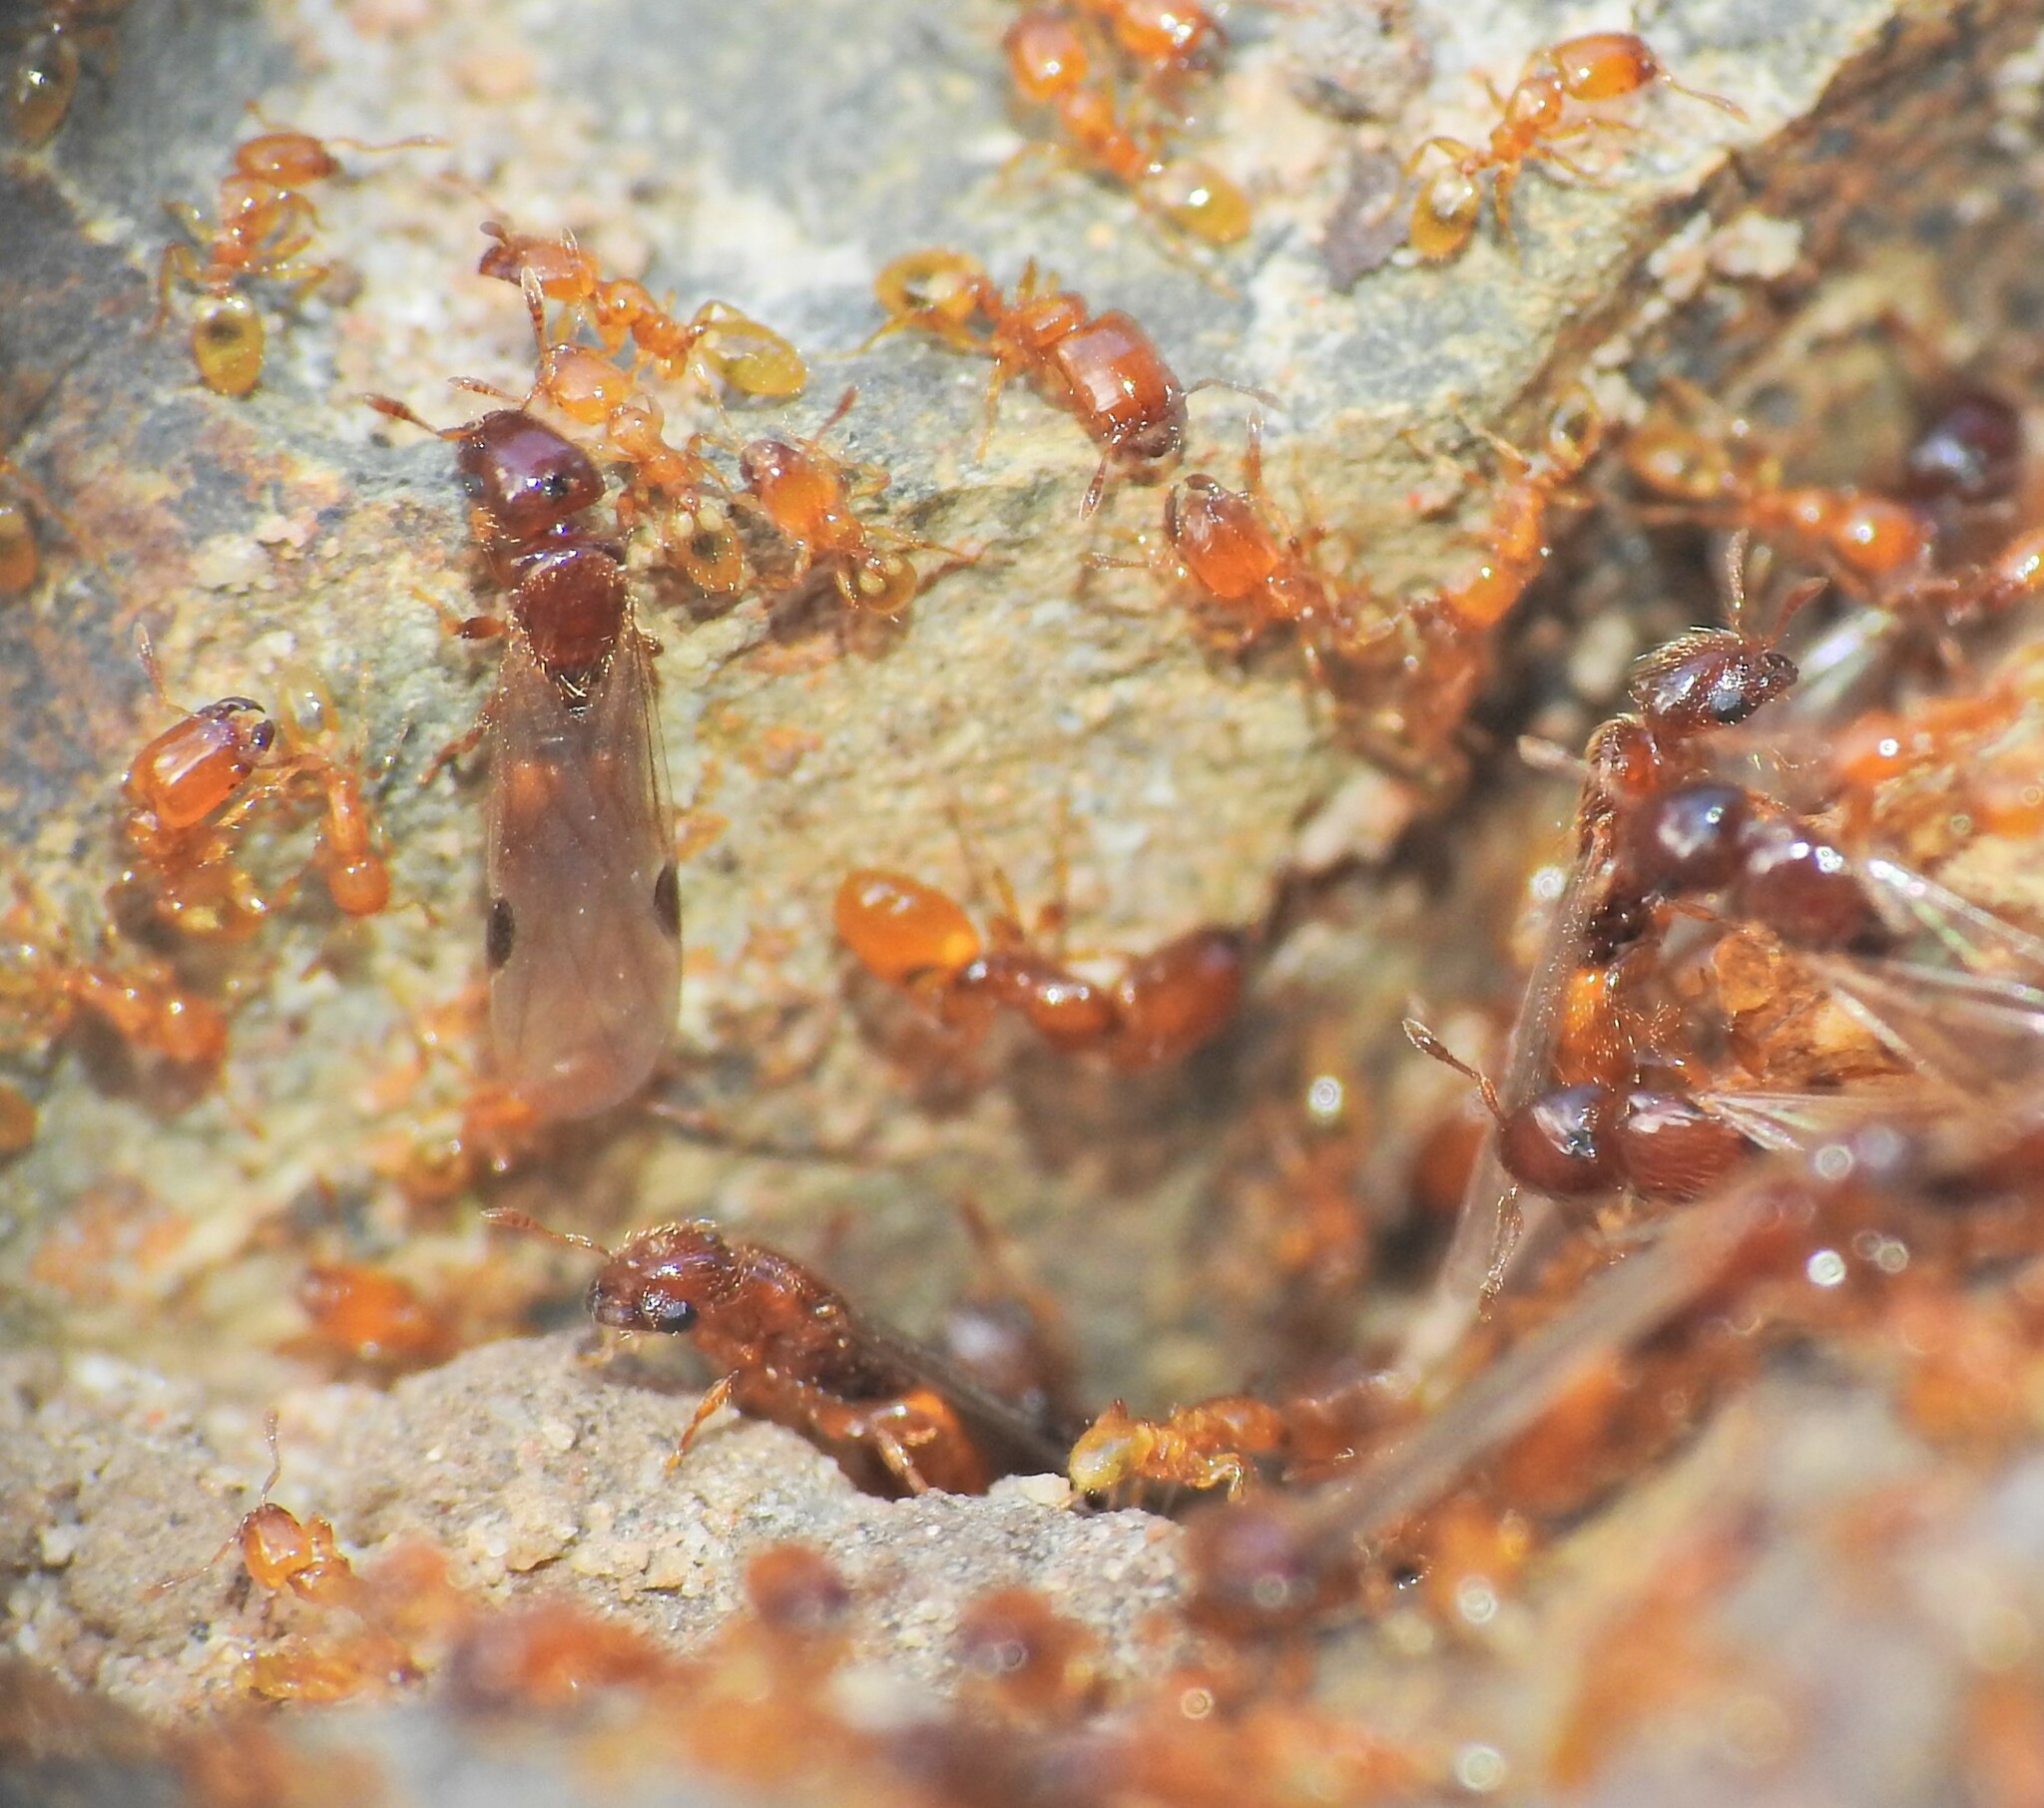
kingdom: Animalia
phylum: Arthropoda
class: Insecta
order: Hymenoptera
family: Formicidae
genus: Pheidole
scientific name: Pheidole
